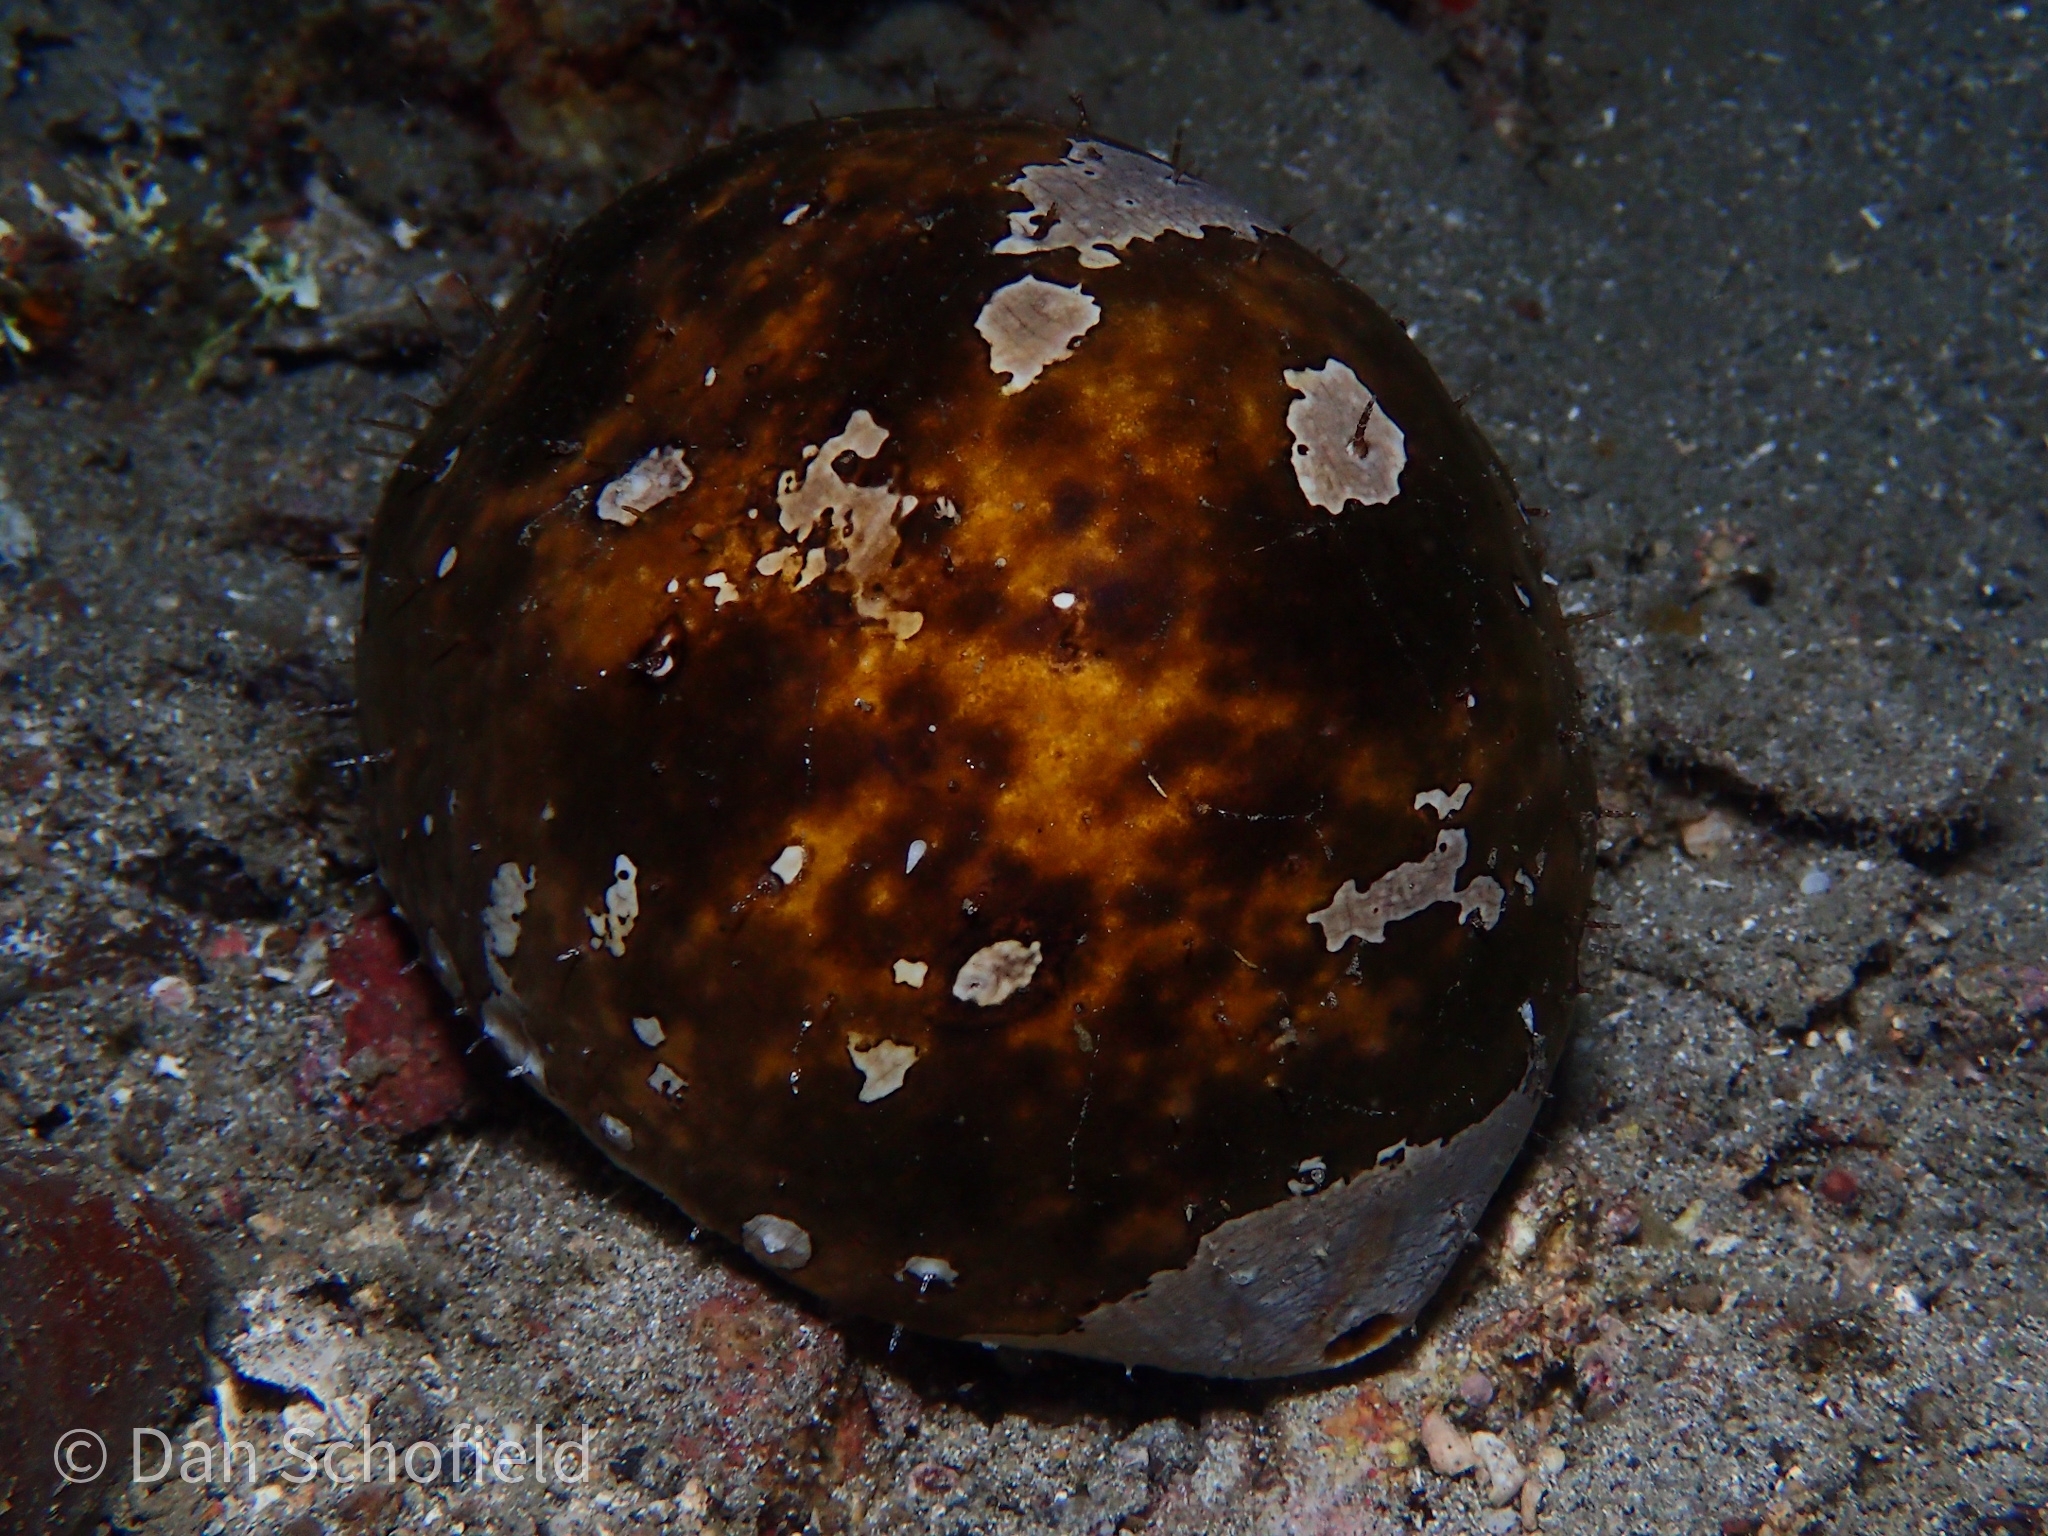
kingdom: Animalia
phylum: Echinodermata
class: Holothuroidea
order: Holothuriida
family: Holothuriidae
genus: Actinopyga
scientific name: Actinopyga lecanora
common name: Stonefish
